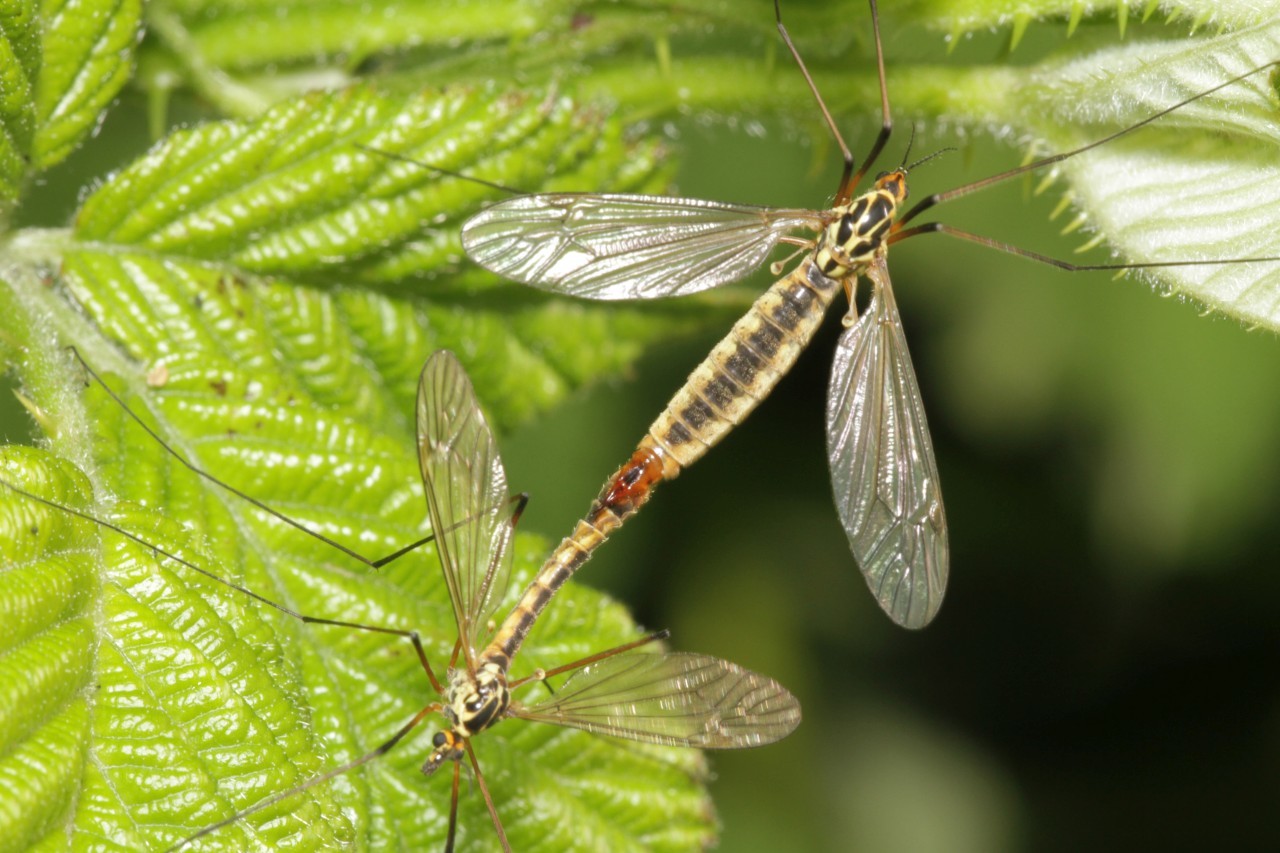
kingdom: Animalia
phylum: Arthropoda
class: Insecta
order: Diptera
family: Tipulidae
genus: Nephrotoma
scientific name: Nephrotoma appendiculata
